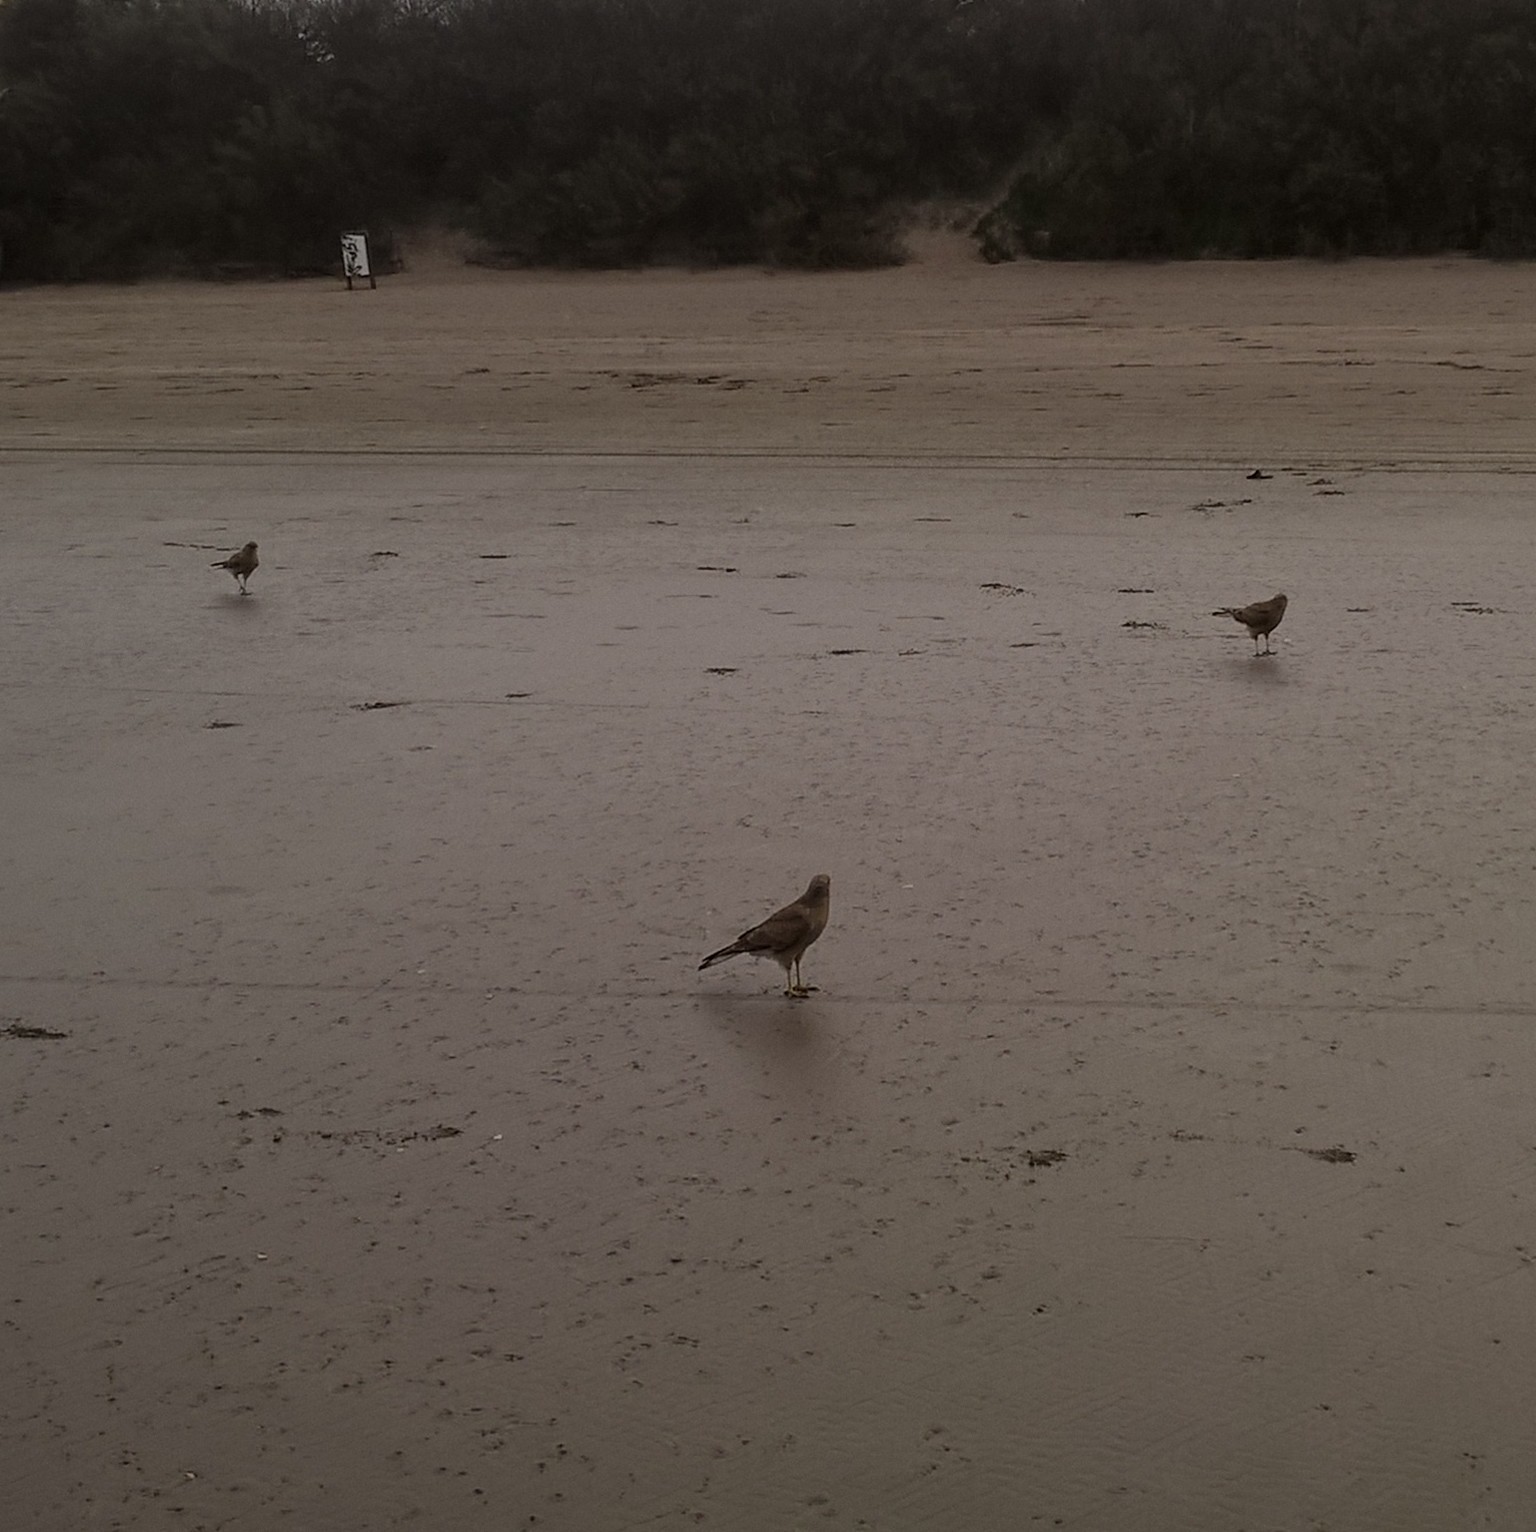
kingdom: Animalia
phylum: Chordata
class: Aves
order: Falconiformes
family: Falconidae
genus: Daptrius
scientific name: Daptrius
